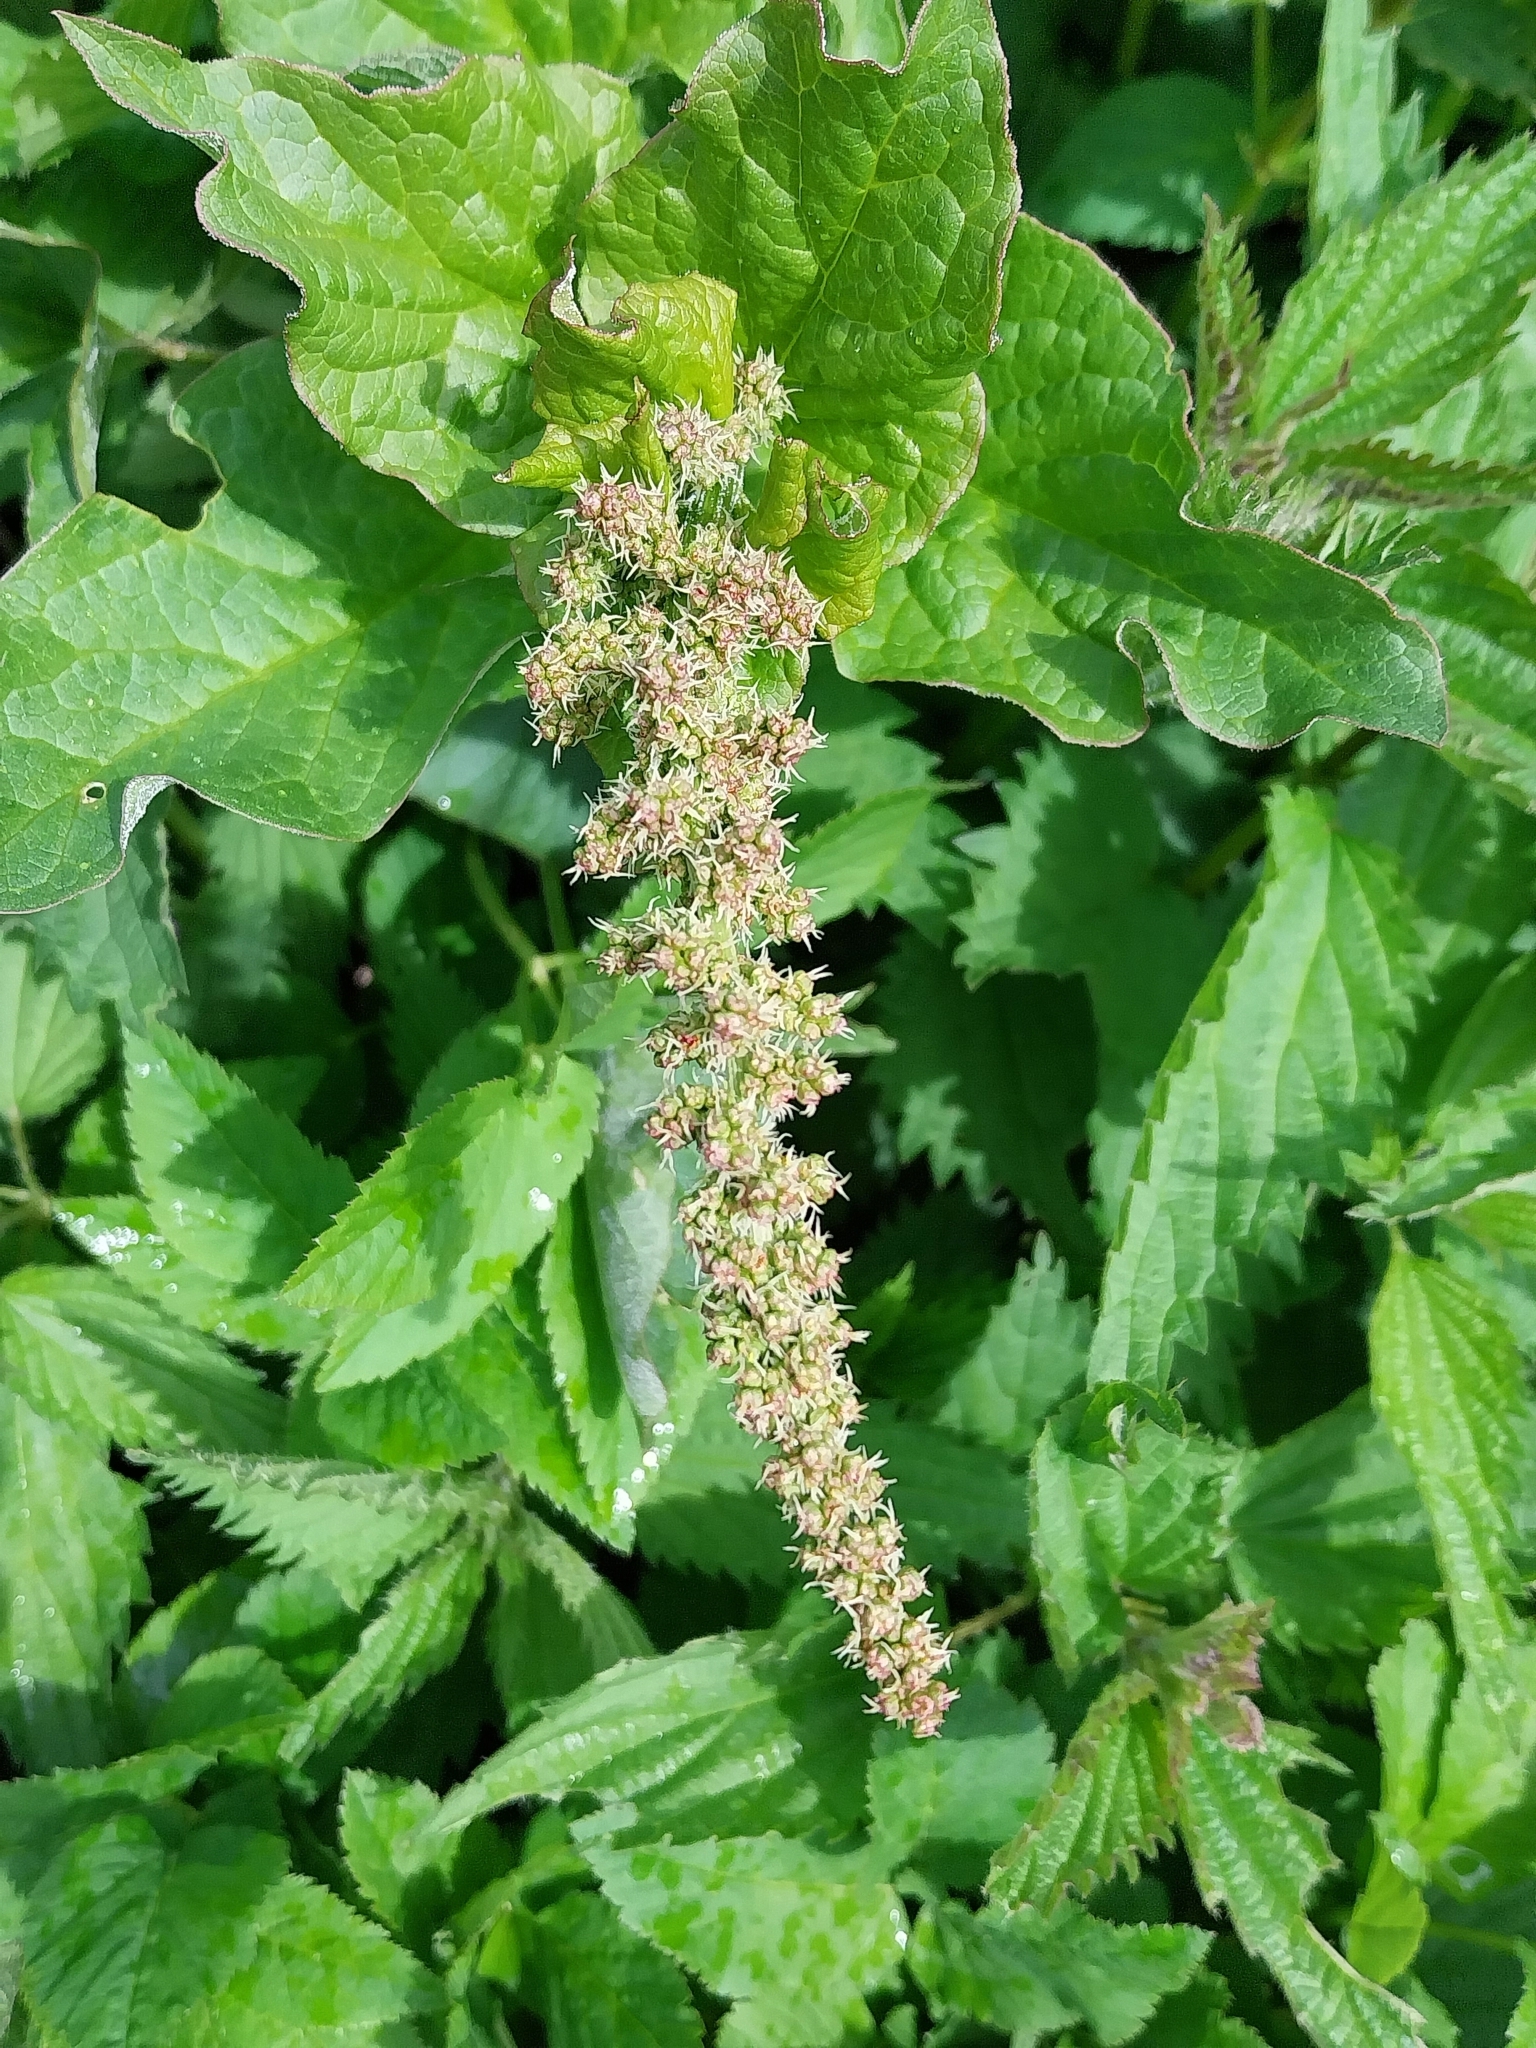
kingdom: Plantae
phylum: Tracheophyta
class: Magnoliopsida
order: Caryophyllales
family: Amaranthaceae
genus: Blitum
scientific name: Blitum bonus-henricus
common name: Good king henry
